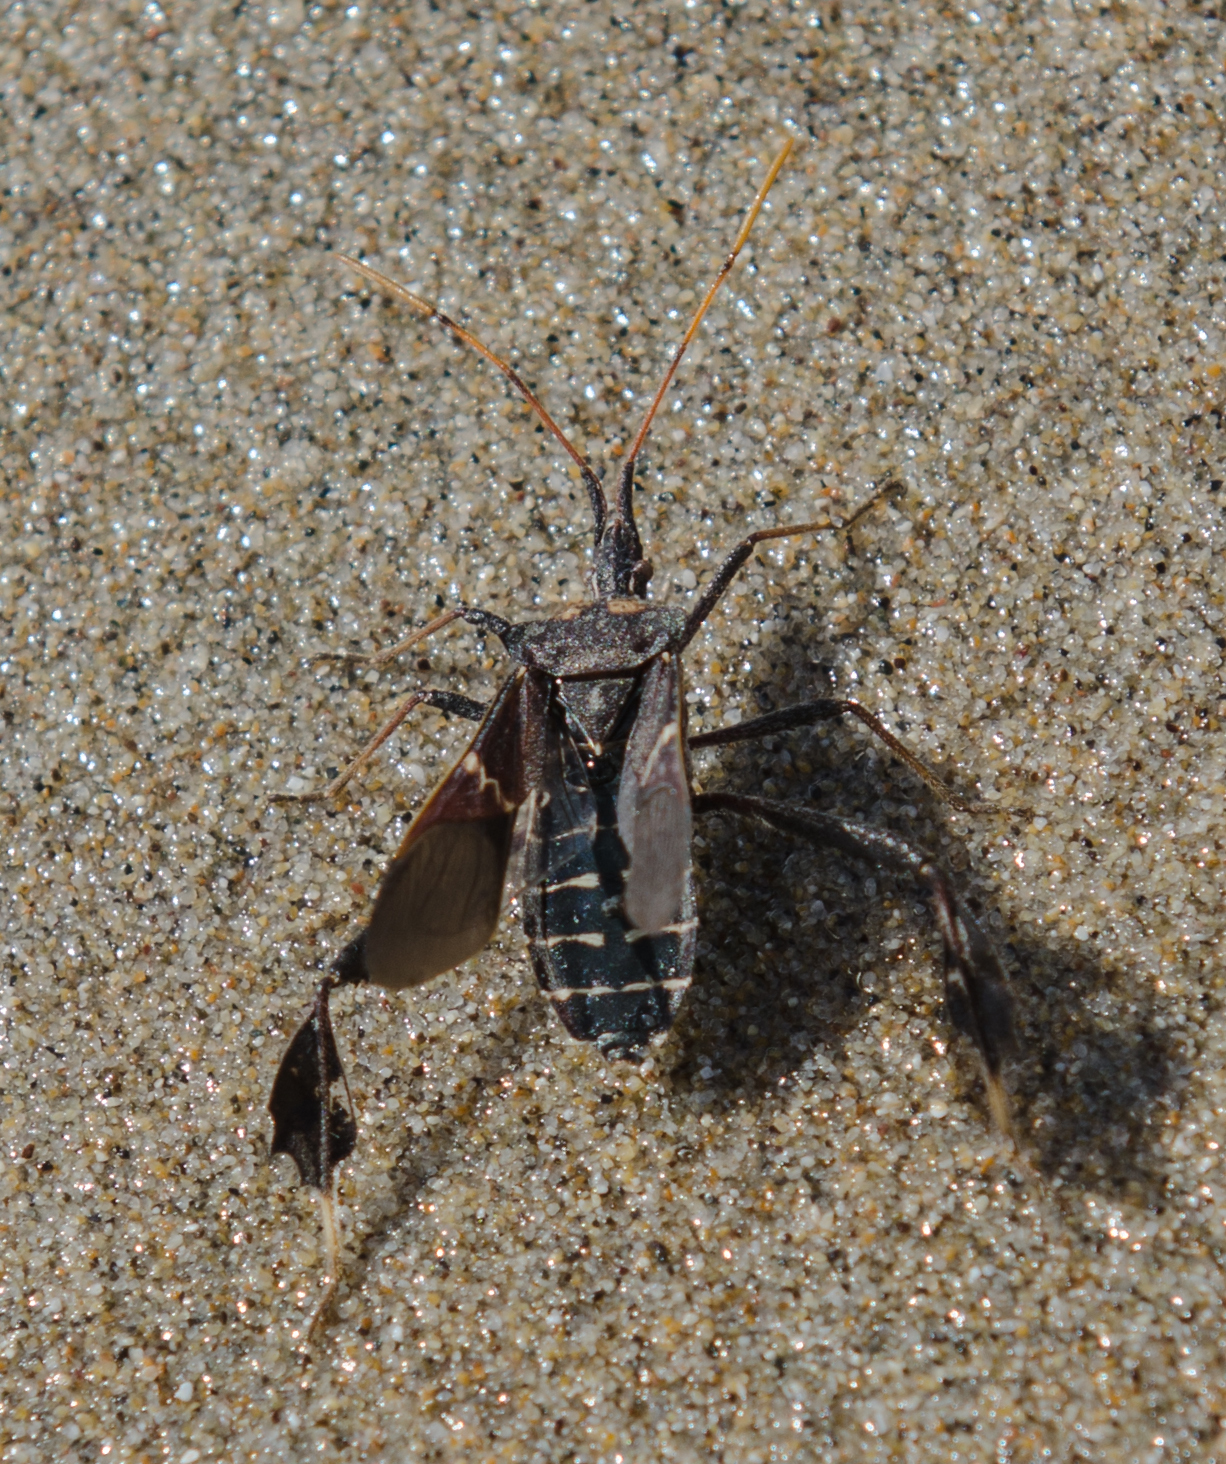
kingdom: Animalia
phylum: Arthropoda
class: Insecta
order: Hemiptera
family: Coreidae
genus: Leptoglossus
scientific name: Leptoglossus zonatus
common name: Large-legged bug
